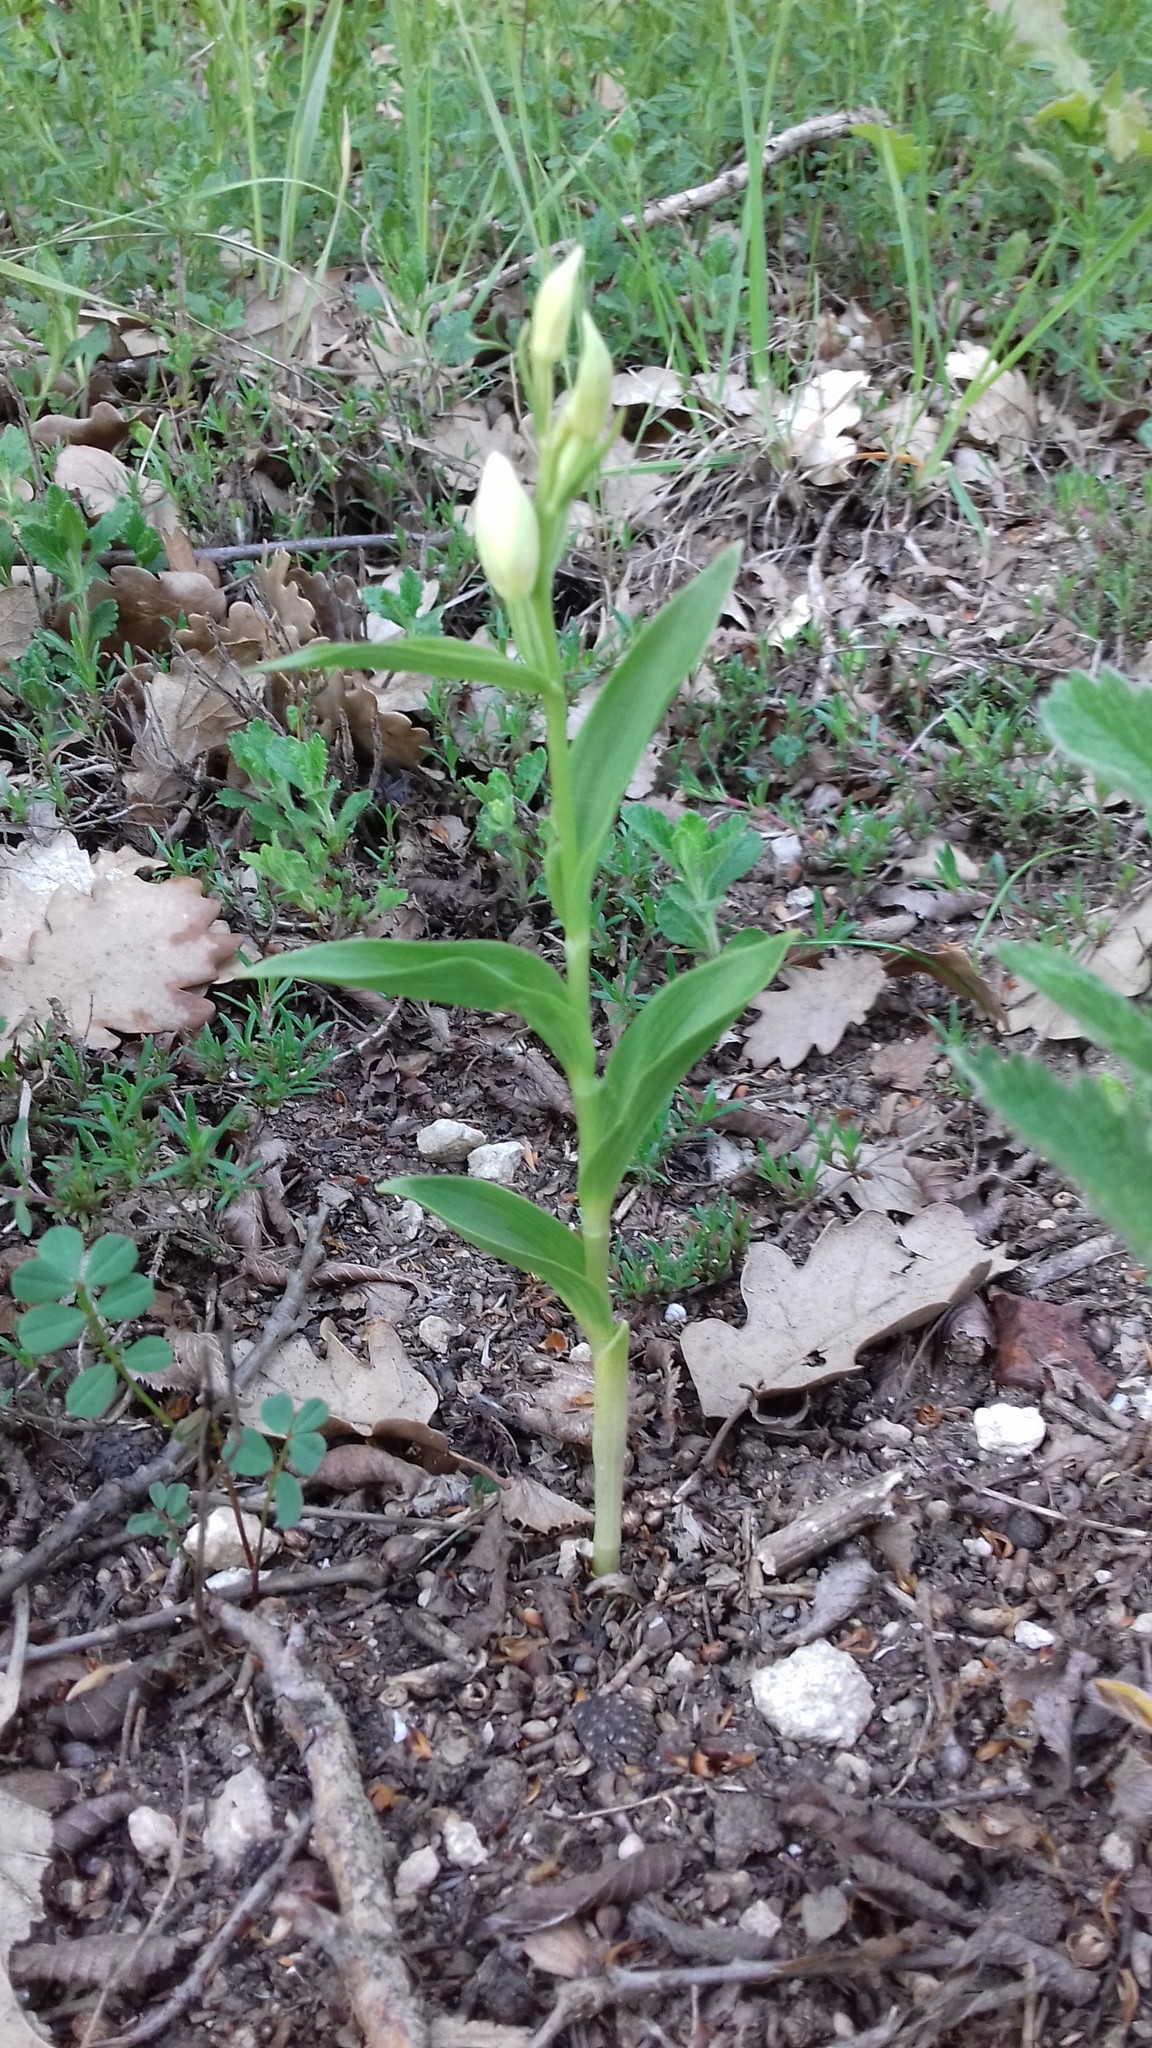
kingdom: Plantae
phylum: Tracheophyta
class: Liliopsida
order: Asparagales
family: Orchidaceae
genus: Cephalanthera
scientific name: Cephalanthera damasonium
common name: White helleborine
